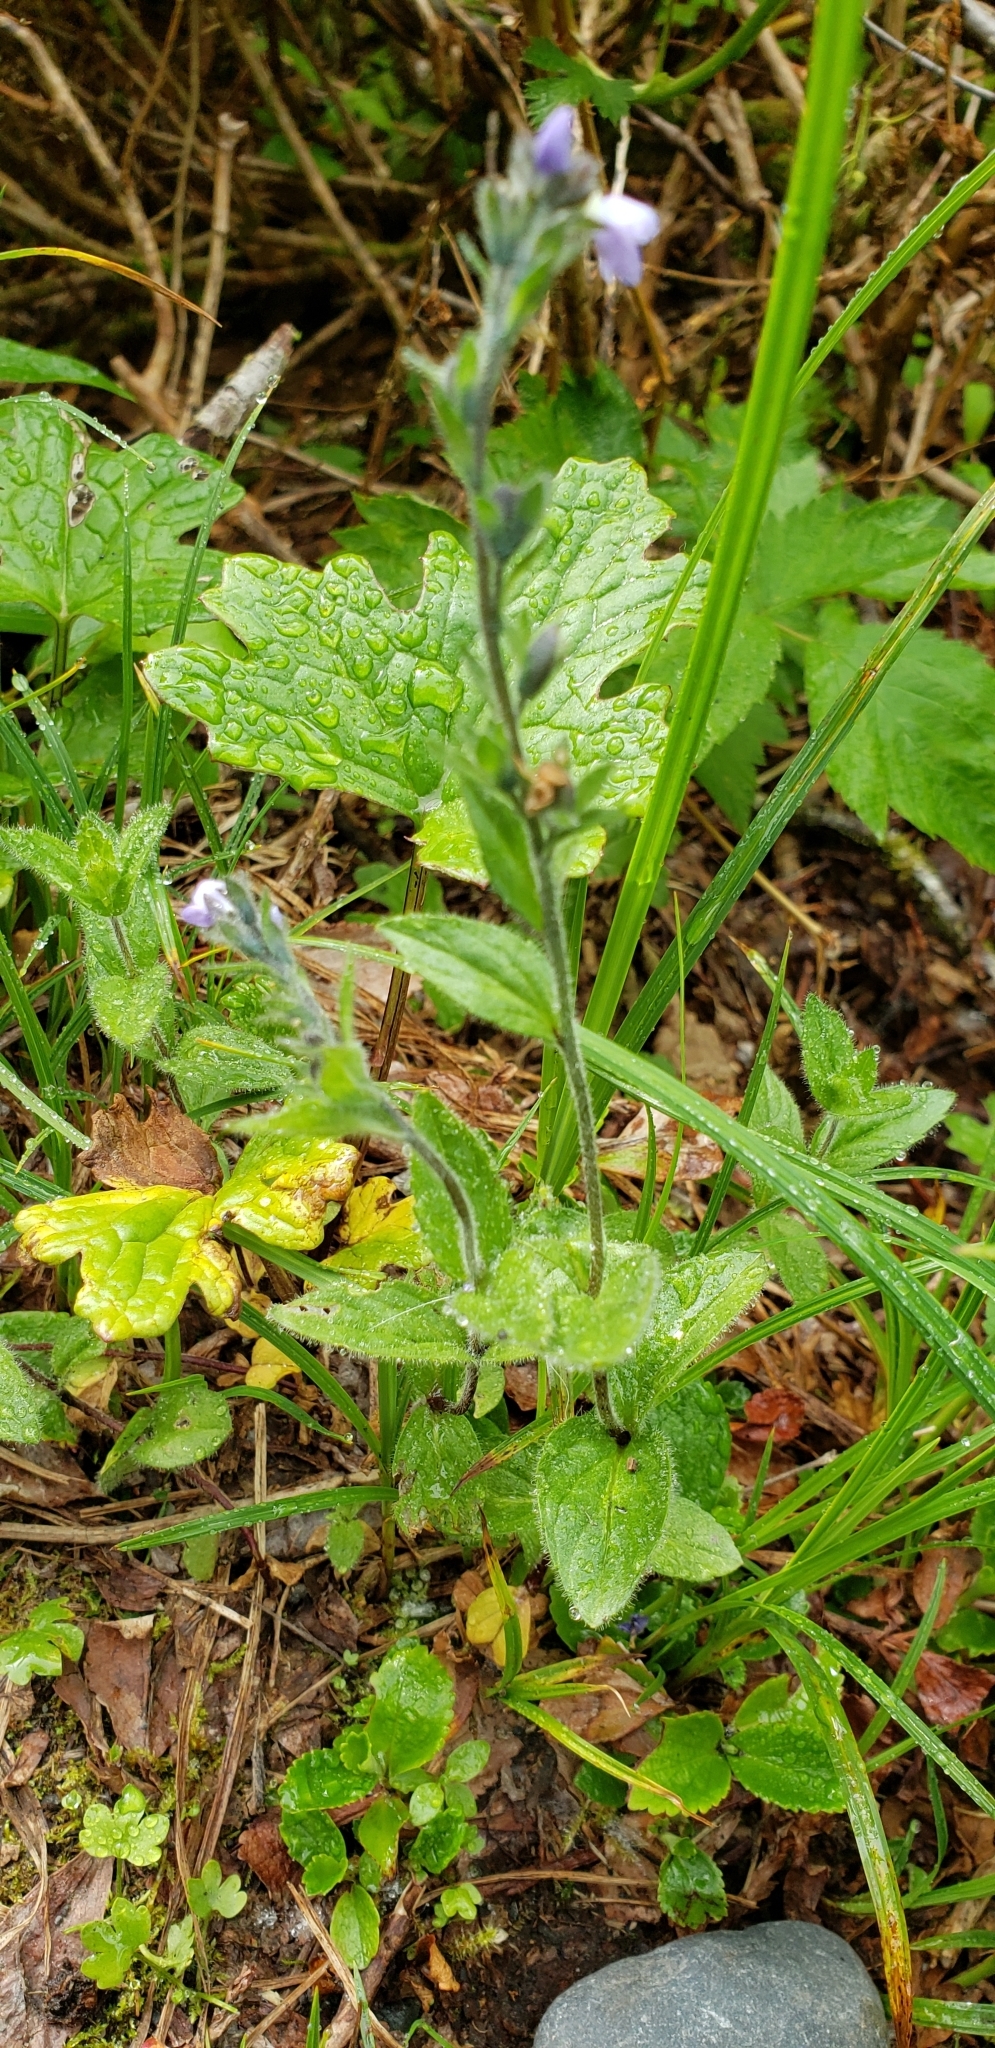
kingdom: Plantae
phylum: Tracheophyta
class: Magnoliopsida
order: Lamiales
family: Plantaginaceae
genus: Veronica
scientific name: Veronica wormskjoldii
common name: American alpine speedwell
